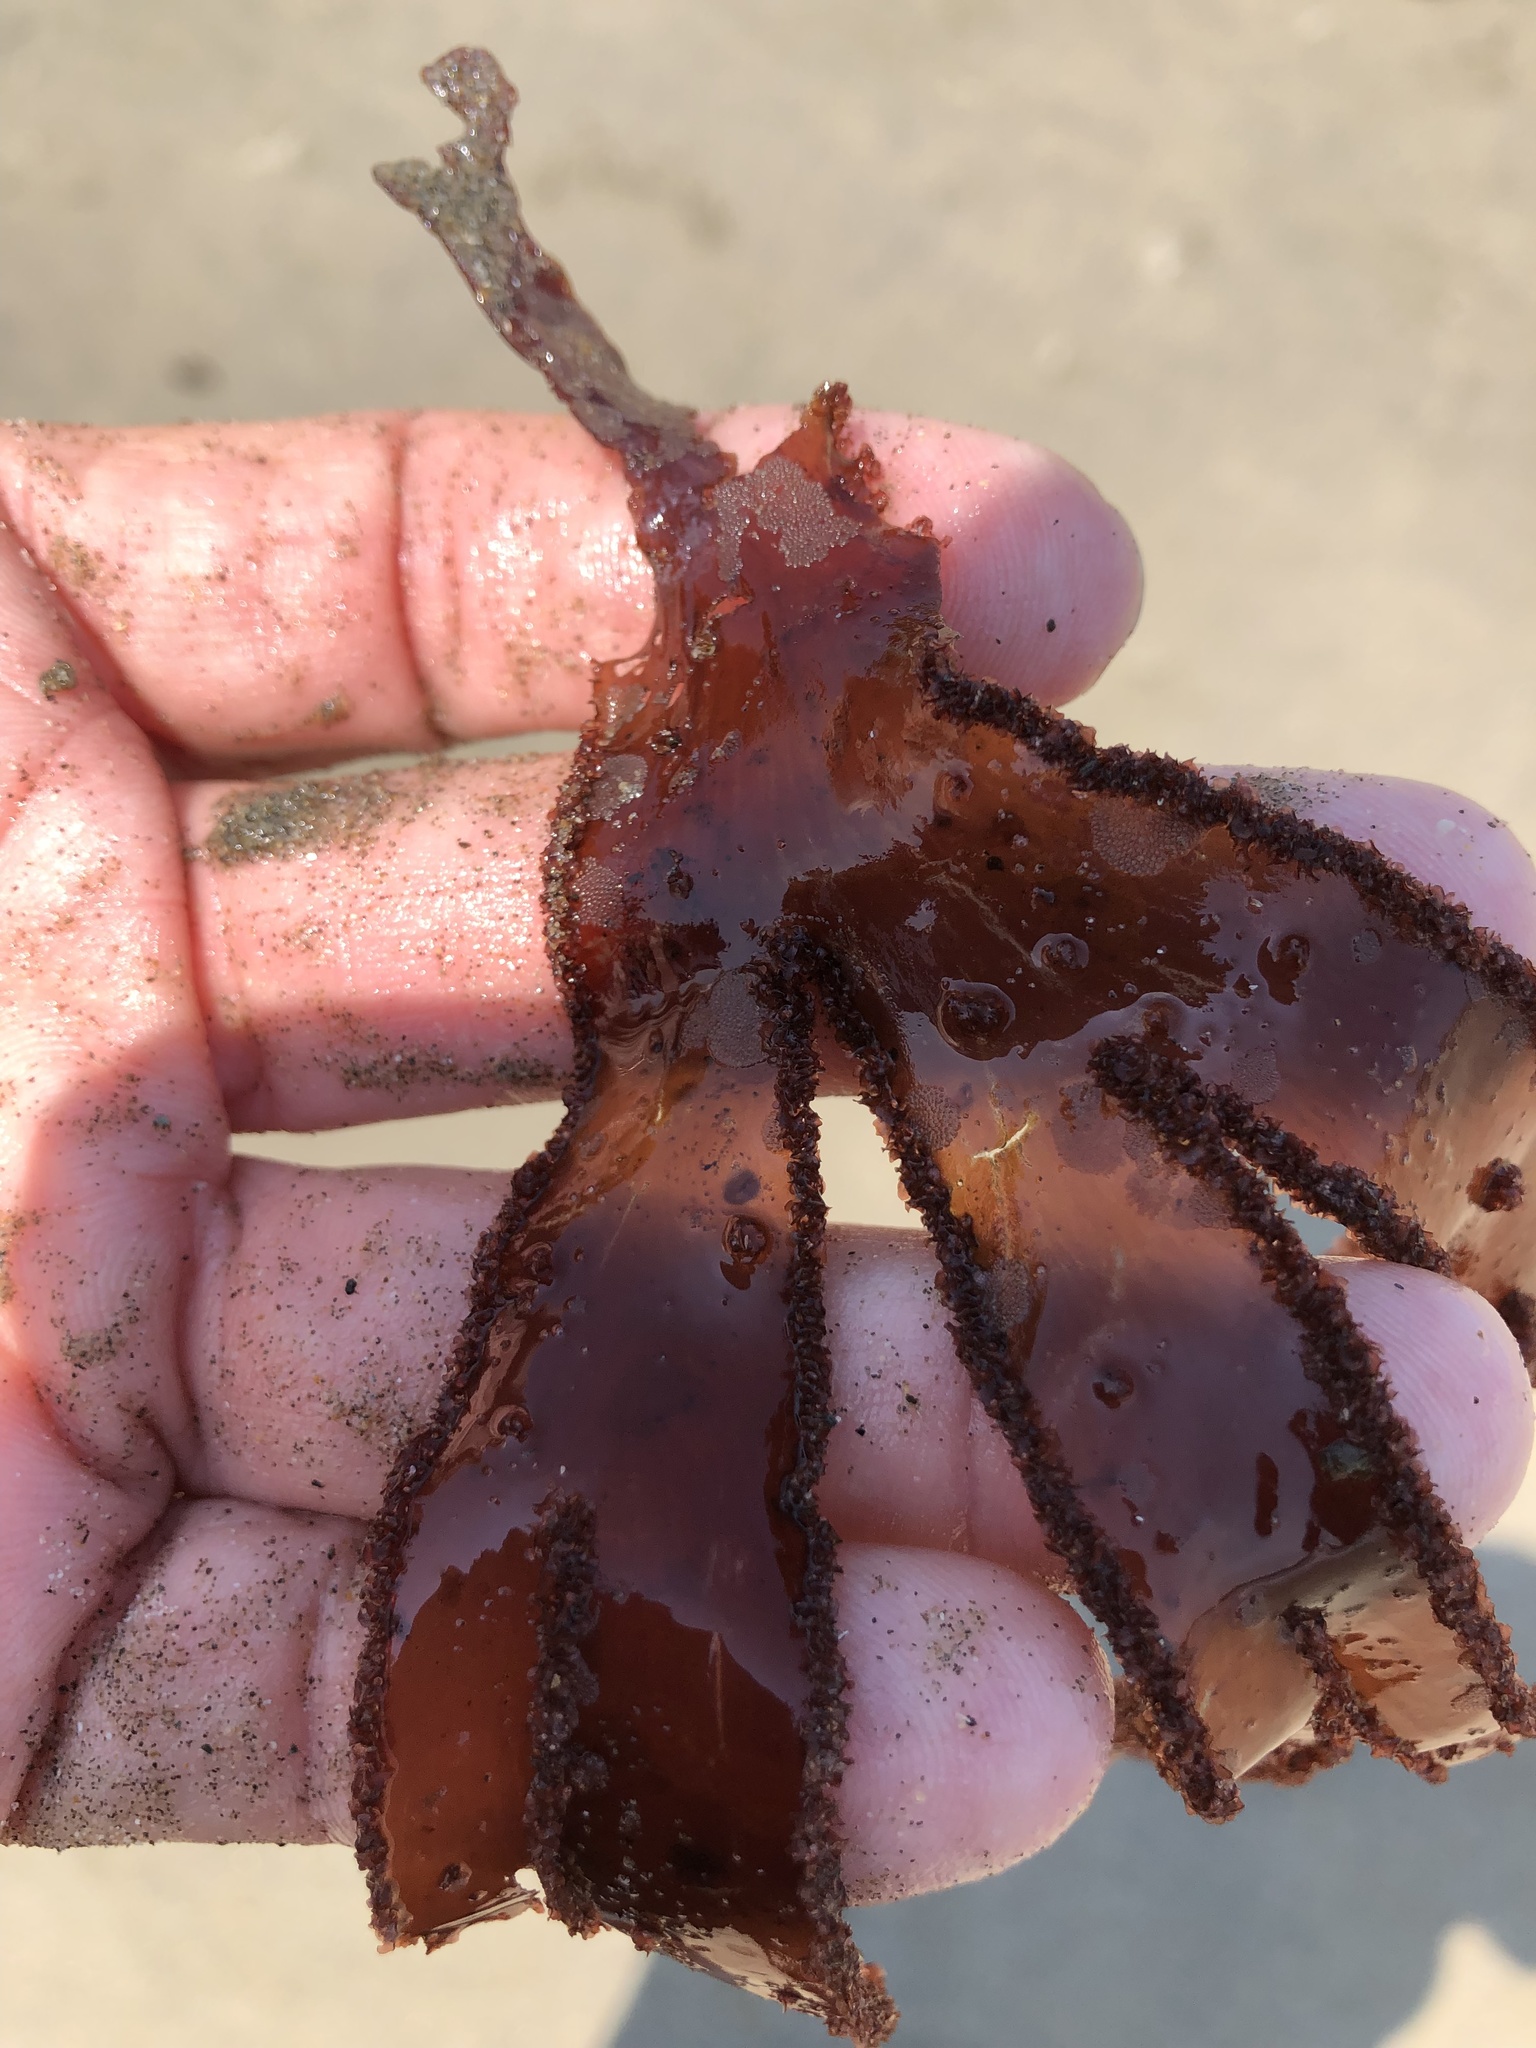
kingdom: Plantae
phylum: Rhodophyta
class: Florideophyceae
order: Ceramiales
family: Delesseriaceae
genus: Cryptopleura
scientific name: Cryptopleura ruprechtiana
